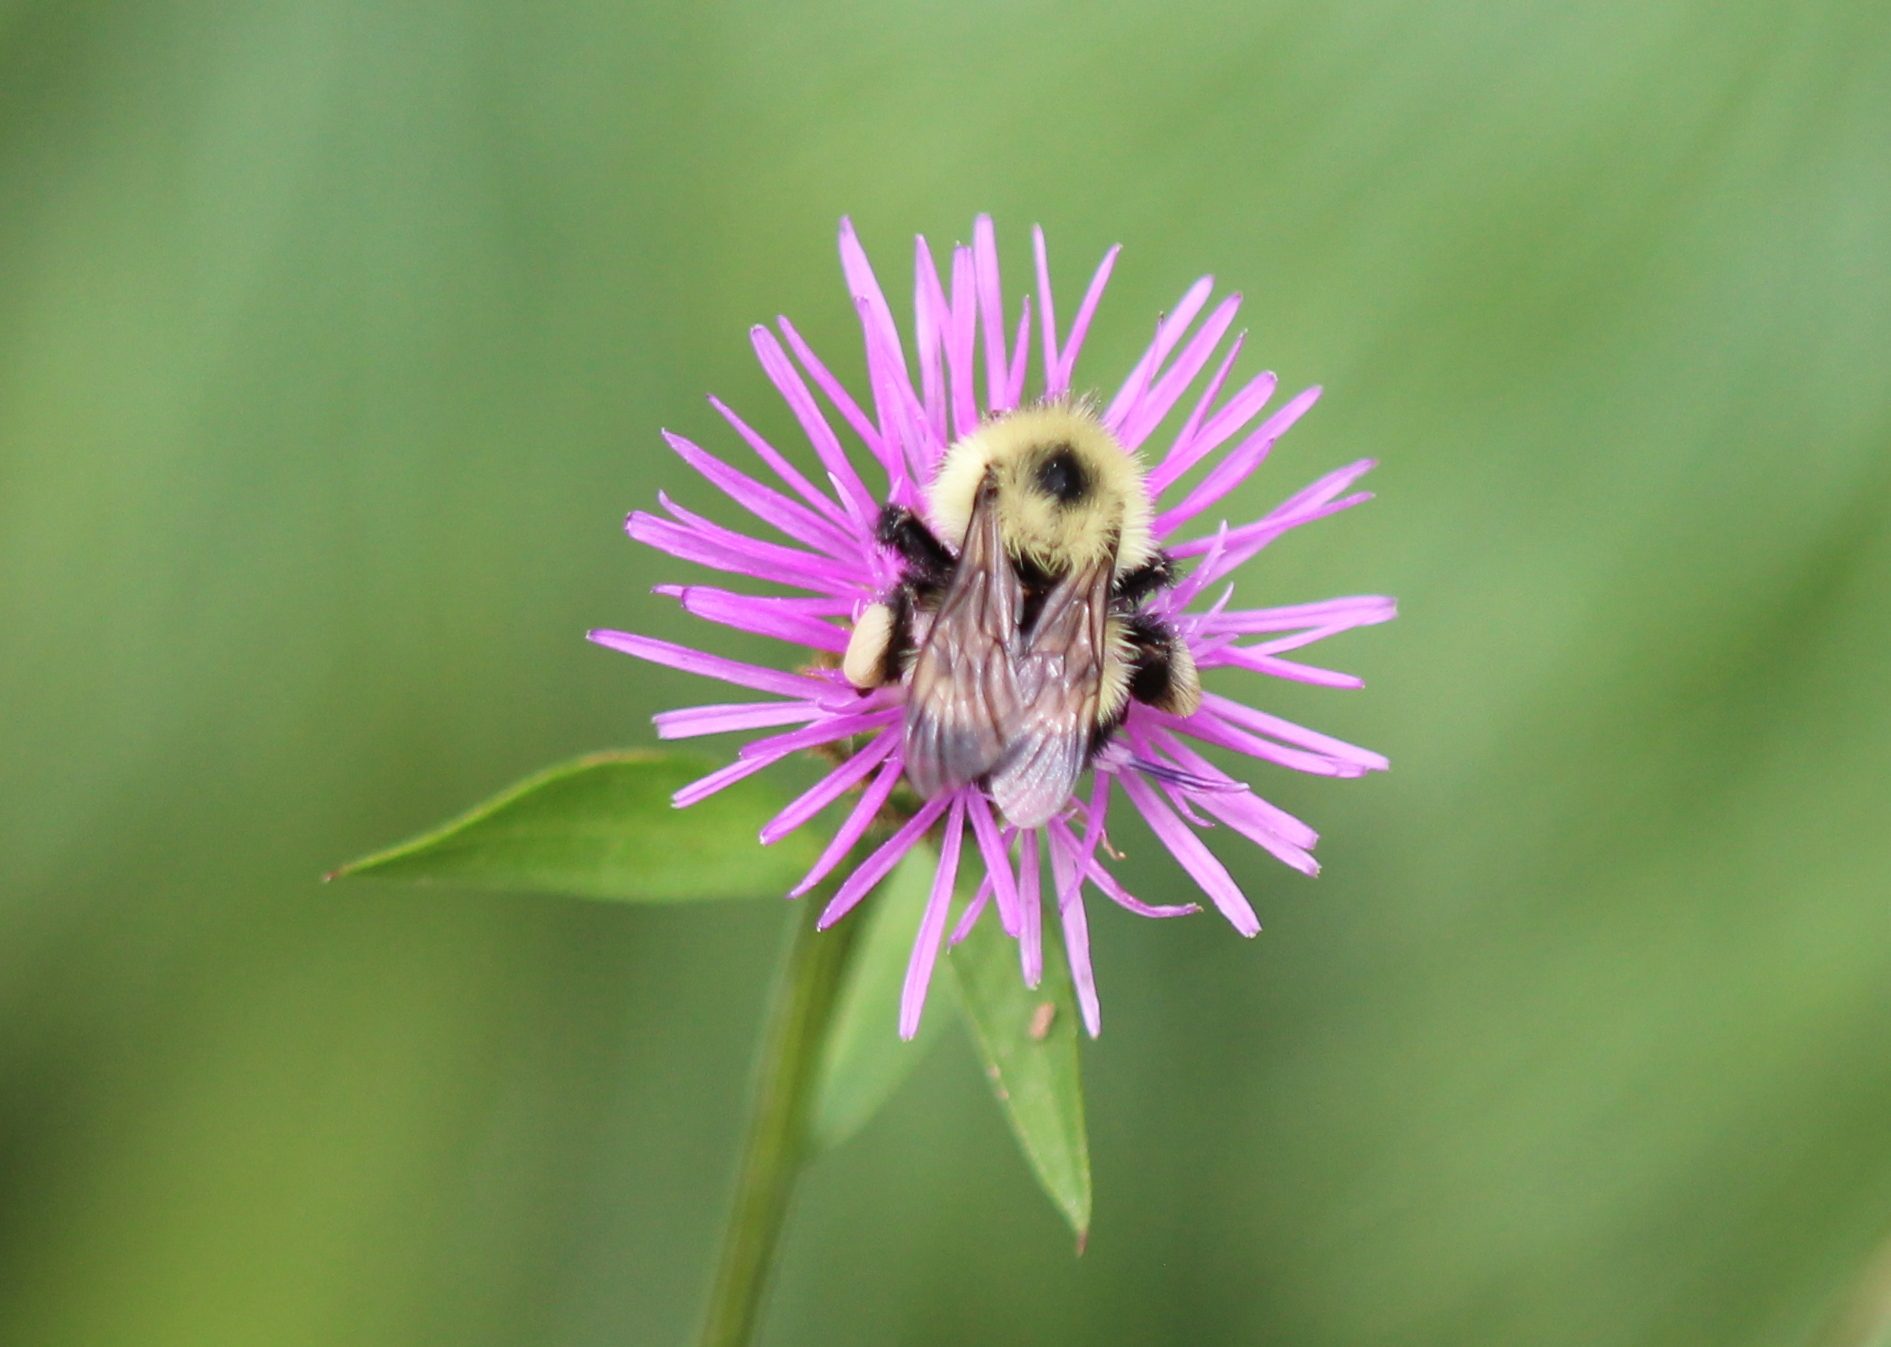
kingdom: Animalia
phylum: Arthropoda
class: Insecta
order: Hymenoptera
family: Apidae
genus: Pyrobombus
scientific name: Pyrobombus
